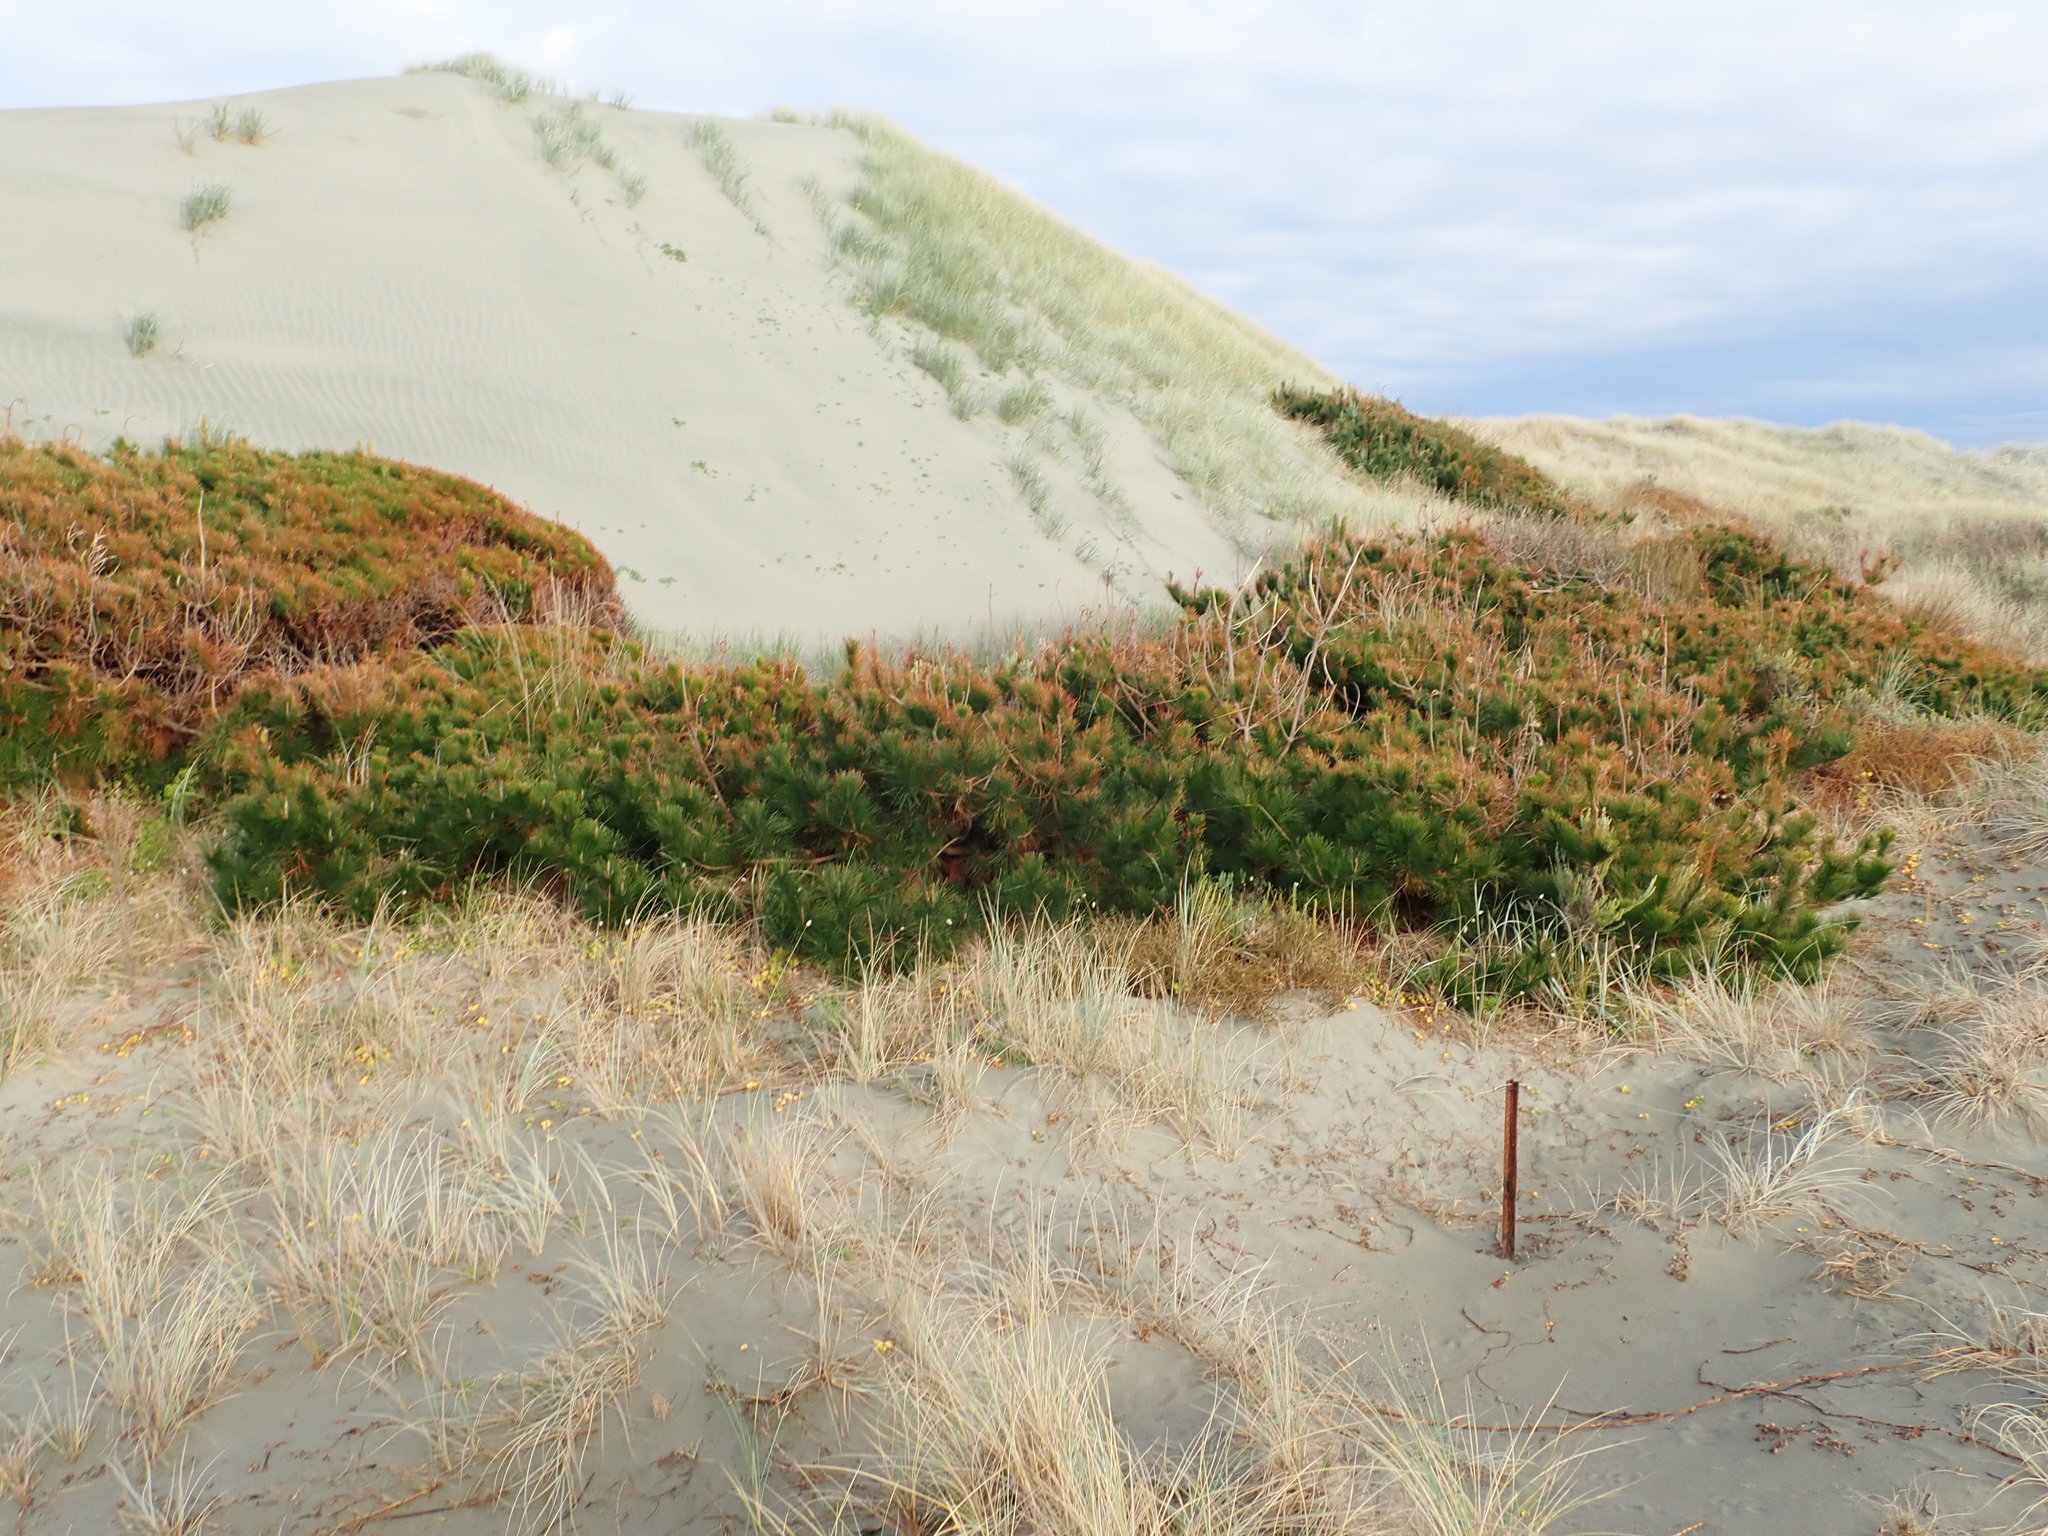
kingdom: Plantae
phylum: Tracheophyta
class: Magnoliopsida
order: Malvales
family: Thymelaeaceae
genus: Pimelea
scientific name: Pimelea villosa
